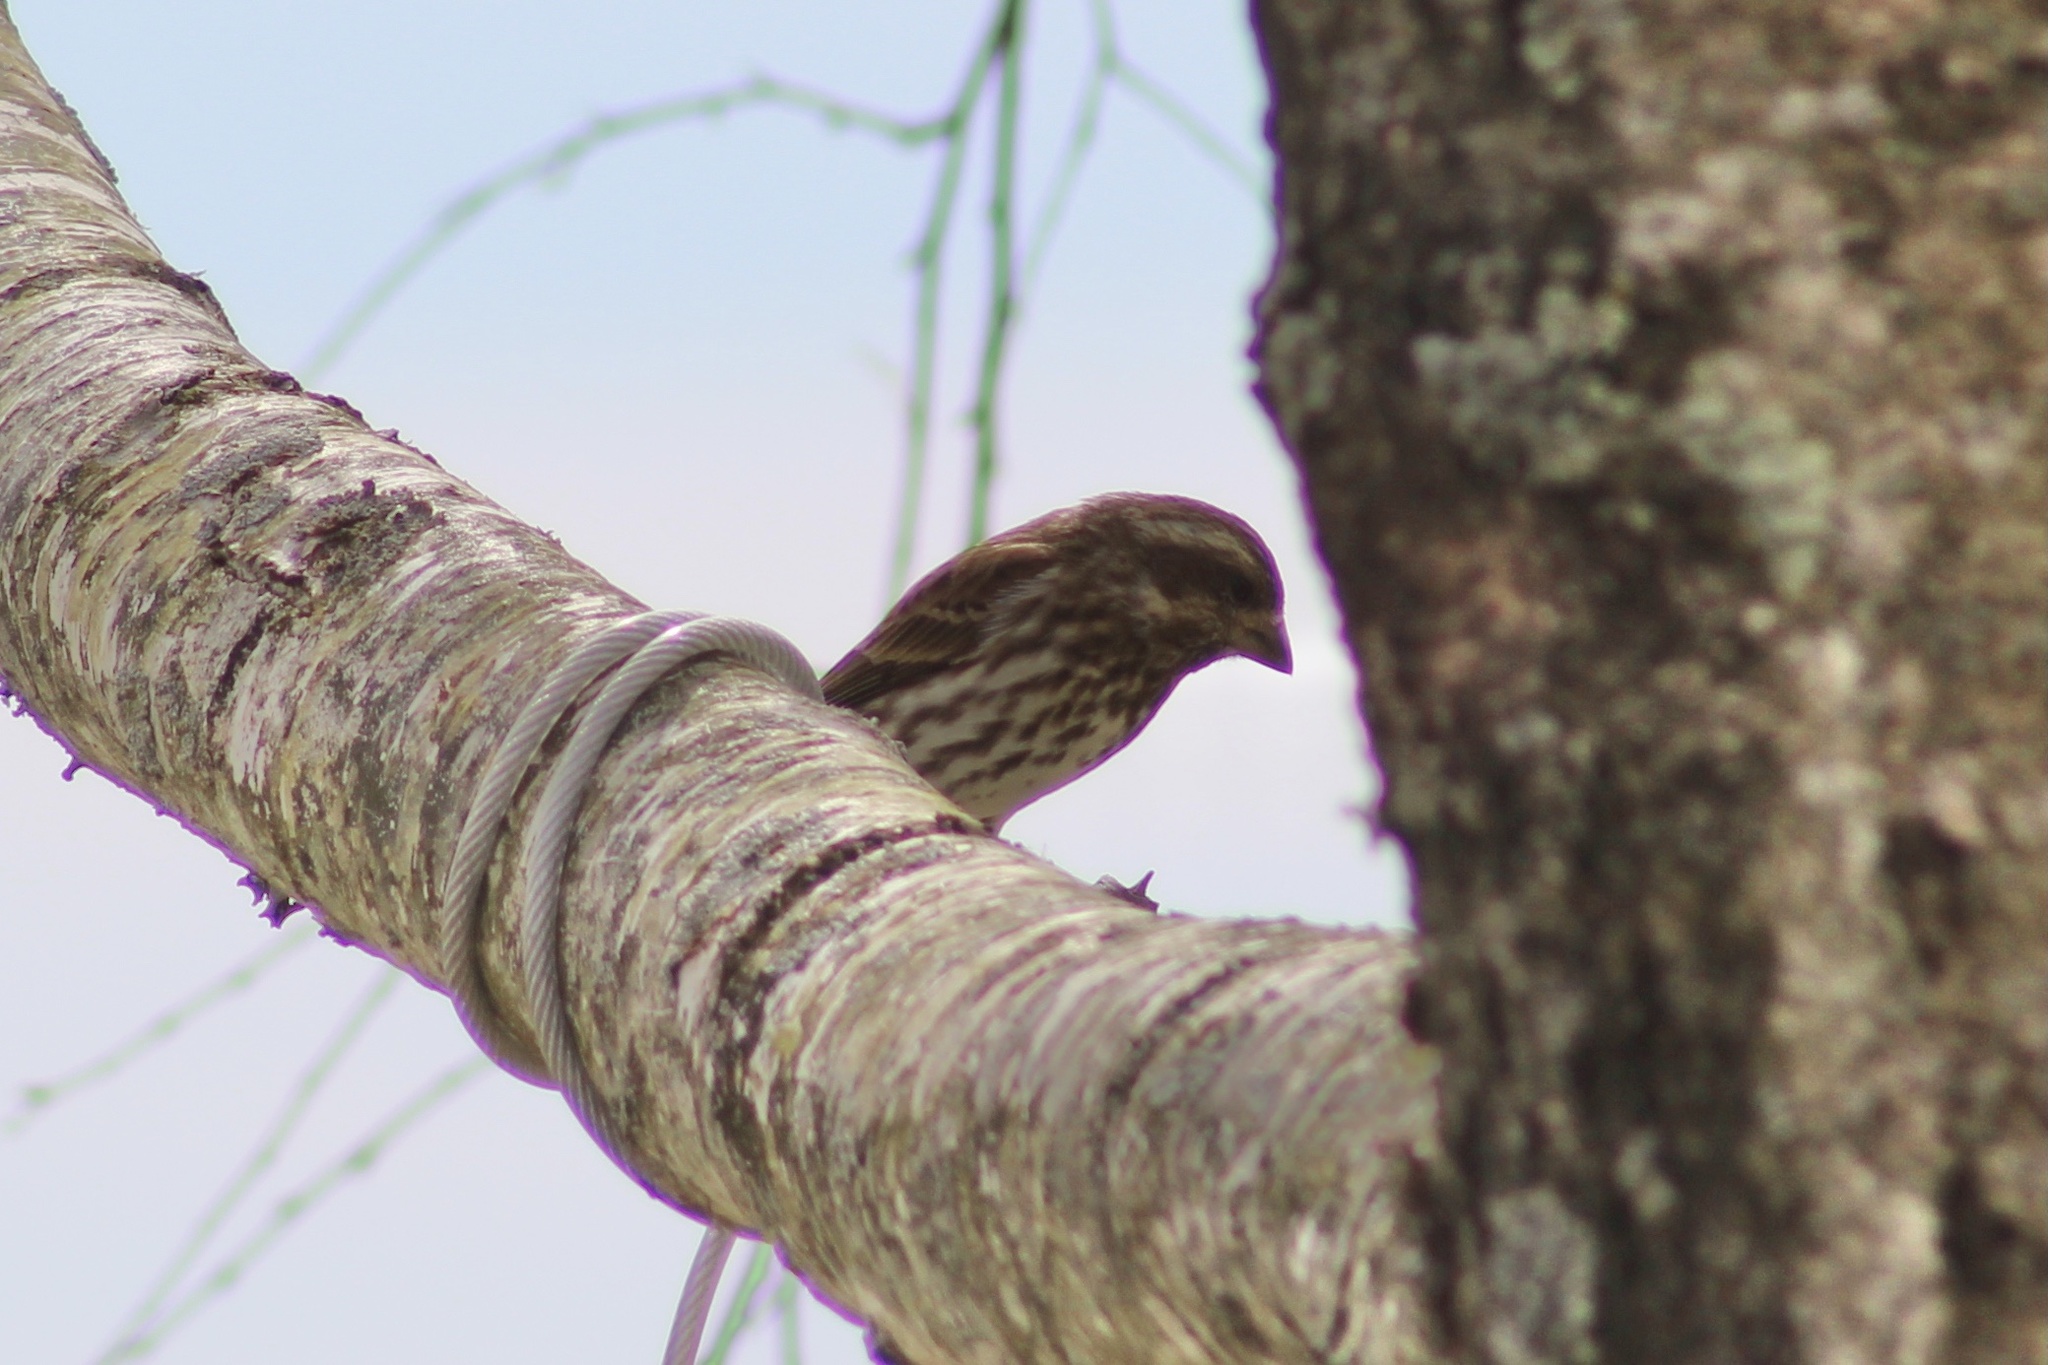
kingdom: Animalia
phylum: Chordata
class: Aves
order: Passeriformes
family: Fringillidae
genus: Haemorhous
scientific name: Haemorhous purpureus
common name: Purple finch
